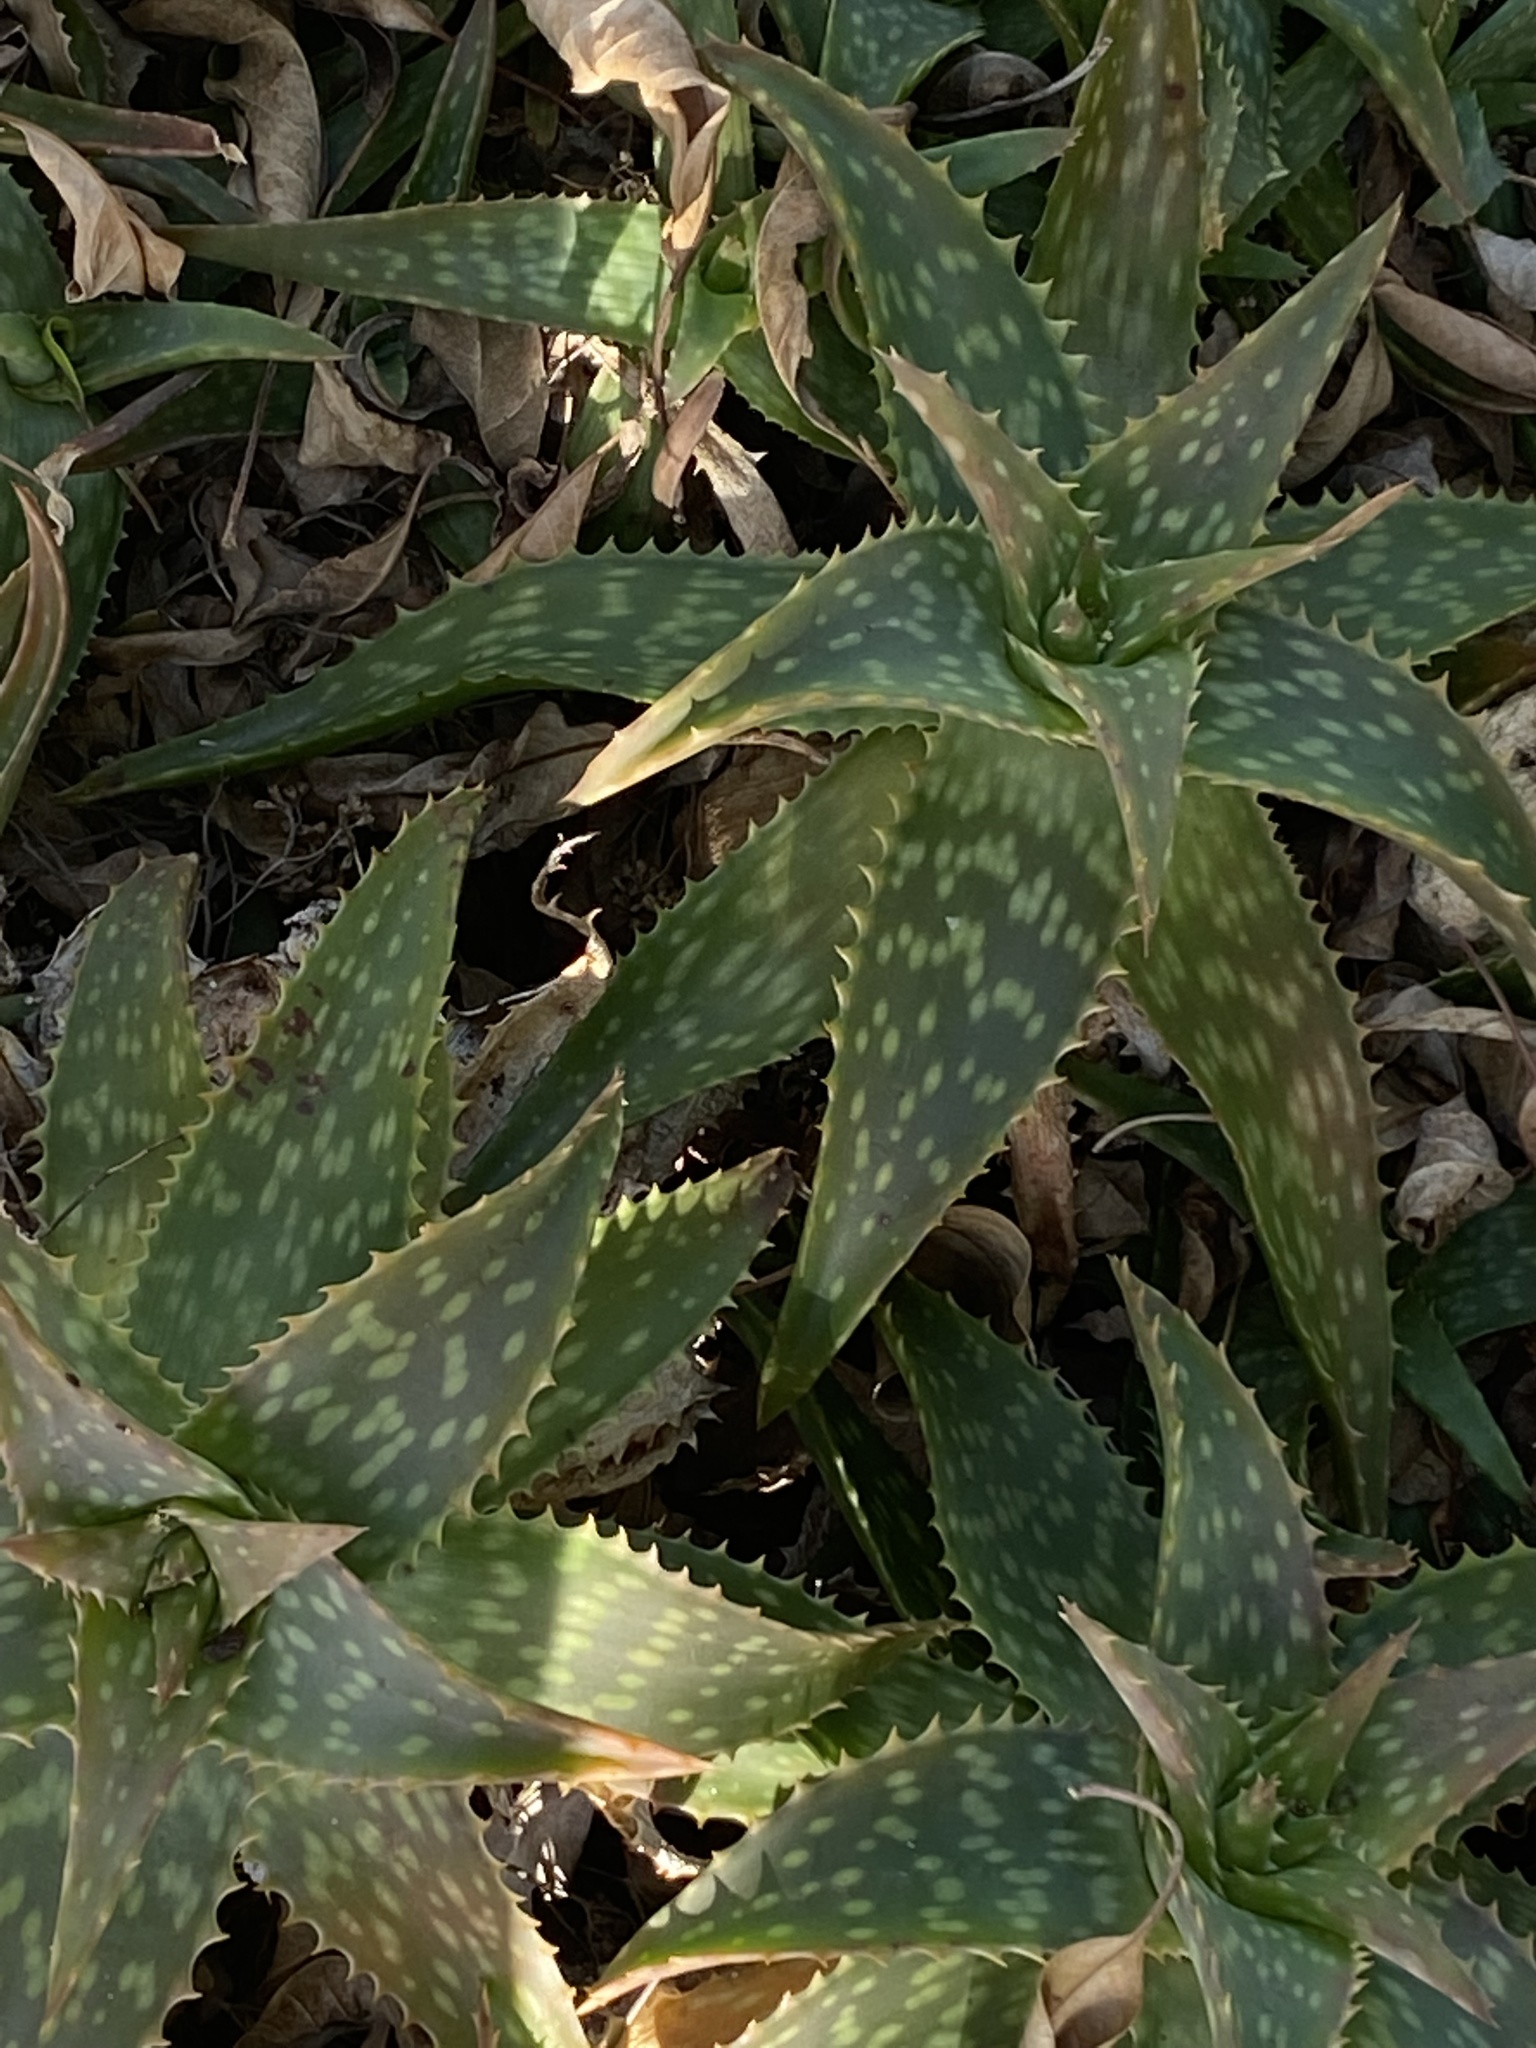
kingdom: Plantae
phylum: Tracheophyta
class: Liliopsida
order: Asparagales
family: Asphodelaceae
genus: Aloe
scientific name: Aloe maculata
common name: Broadleaf aloe
